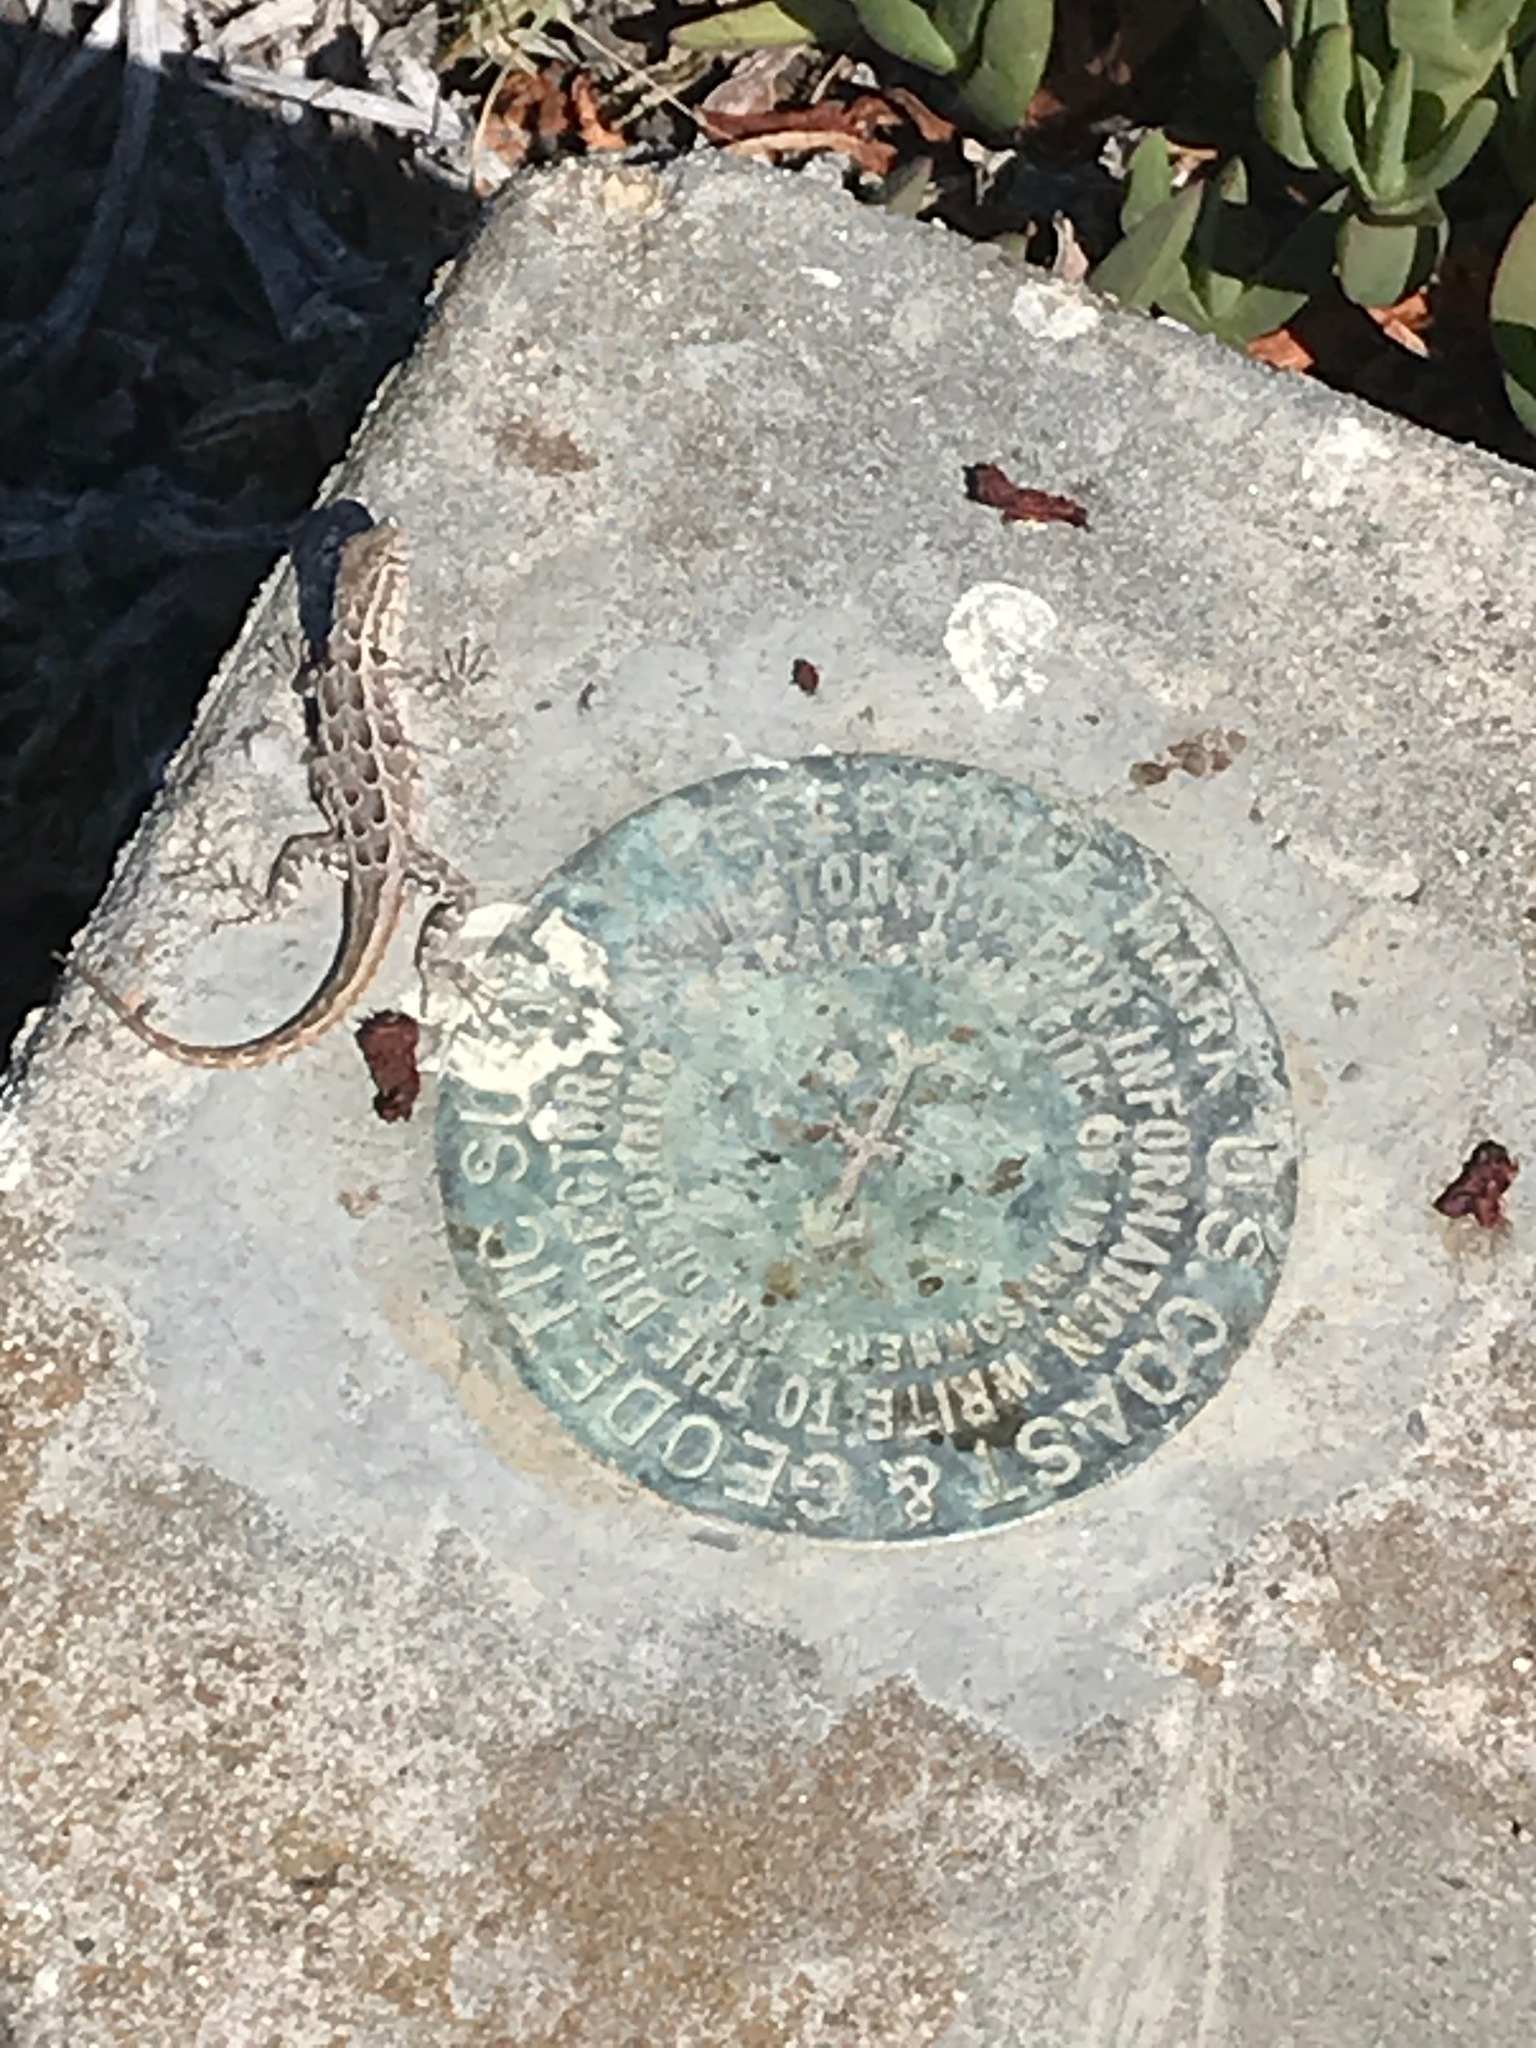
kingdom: Animalia
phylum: Chordata
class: Squamata
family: Phrynosomatidae
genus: Uta
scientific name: Uta stansburiana
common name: Side-blotched lizard
